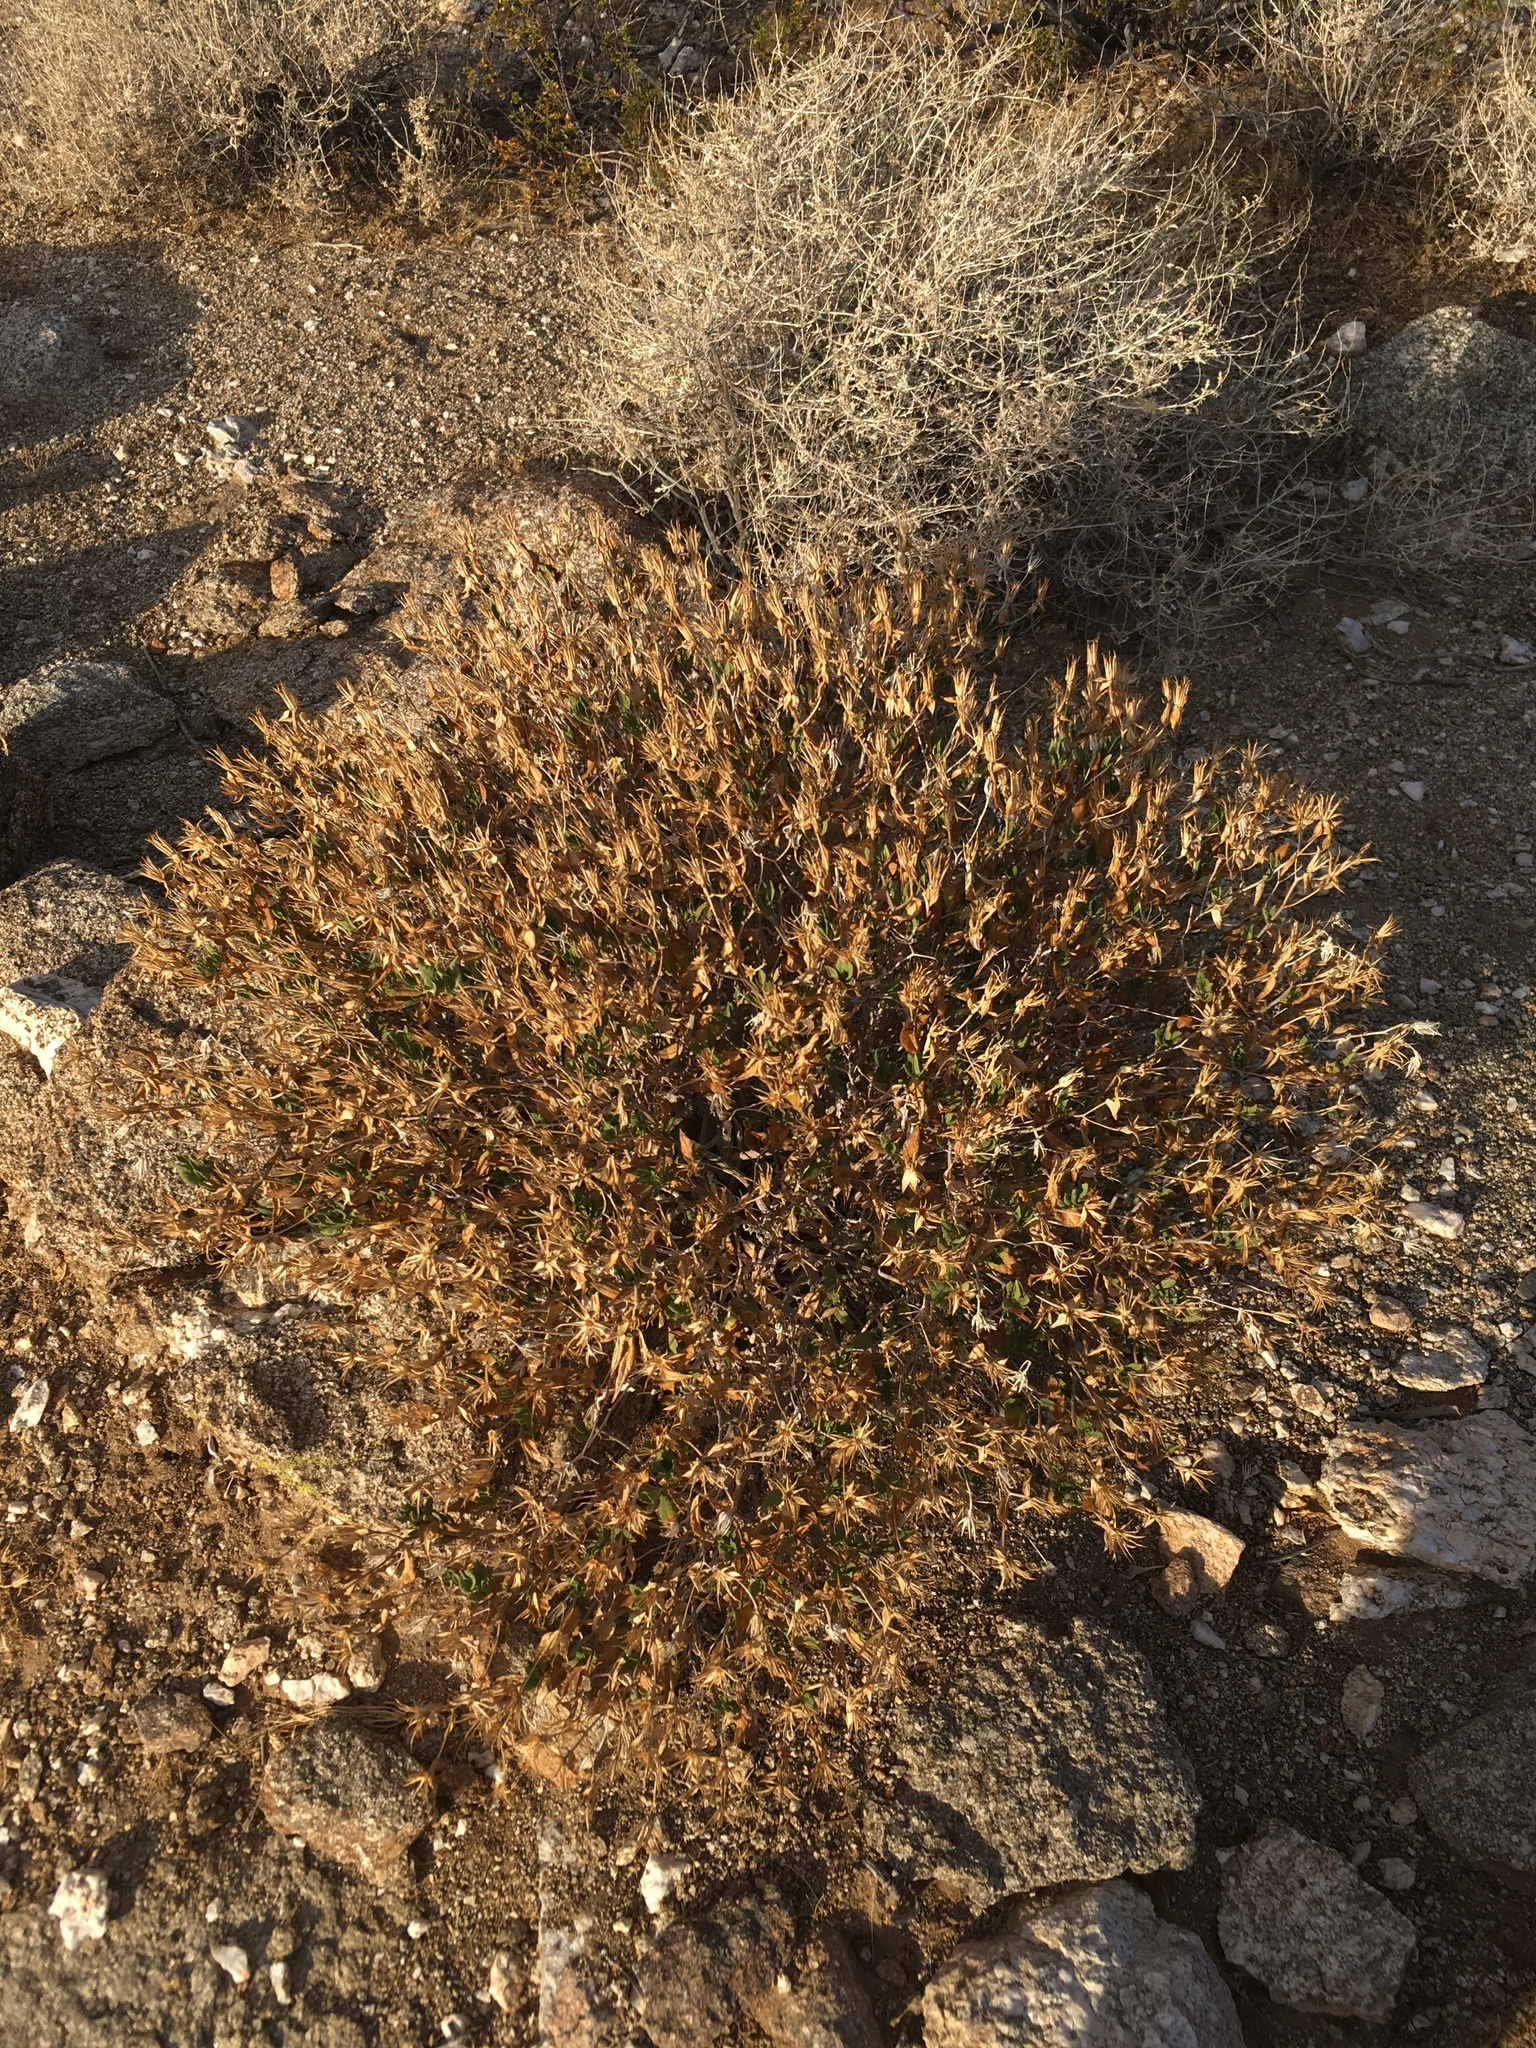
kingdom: Plantae
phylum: Tracheophyta
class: Magnoliopsida
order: Asterales
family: Asteraceae
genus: Trixis
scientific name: Trixis californica
